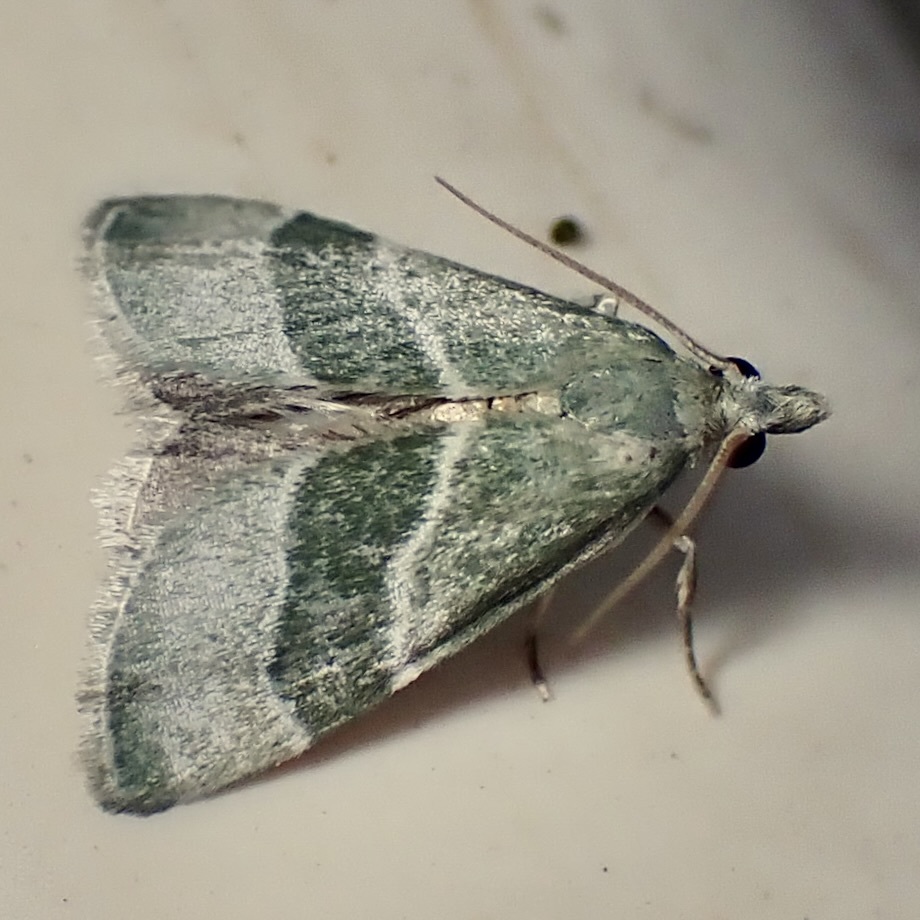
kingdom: Animalia
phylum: Arthropoda
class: Insecta
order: Lepidoptera
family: Pyralidae
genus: Anemosella
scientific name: Anemosella viridalis
